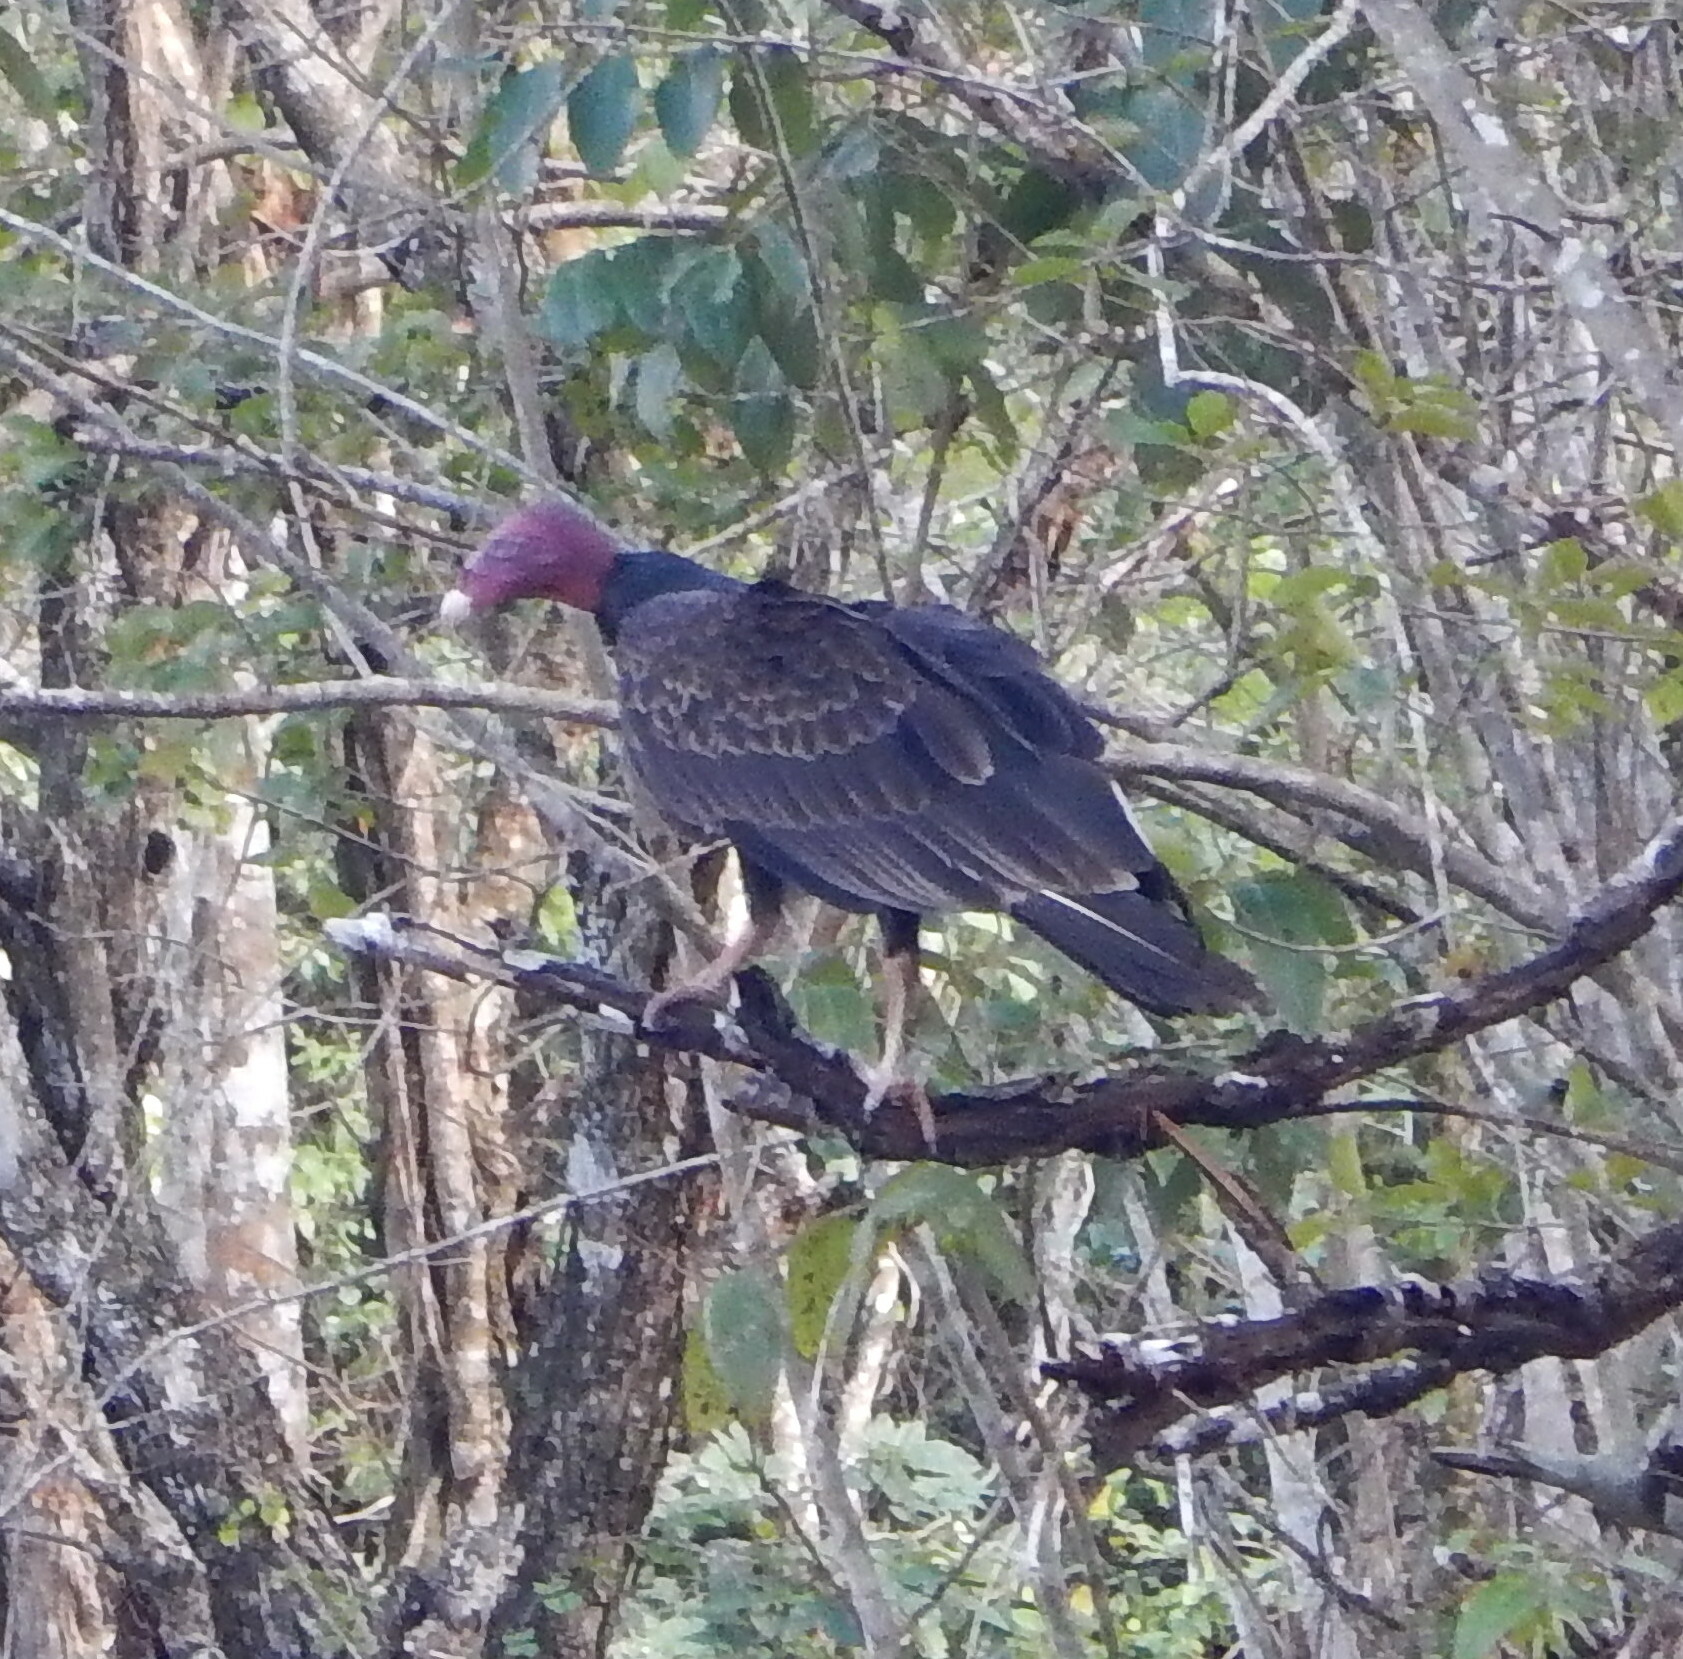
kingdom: Animalia
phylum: Chordata
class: Aves
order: Accipitriformes
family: Cathartidae
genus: Cathartes
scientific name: Cathartes aura
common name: Turkey vulture
